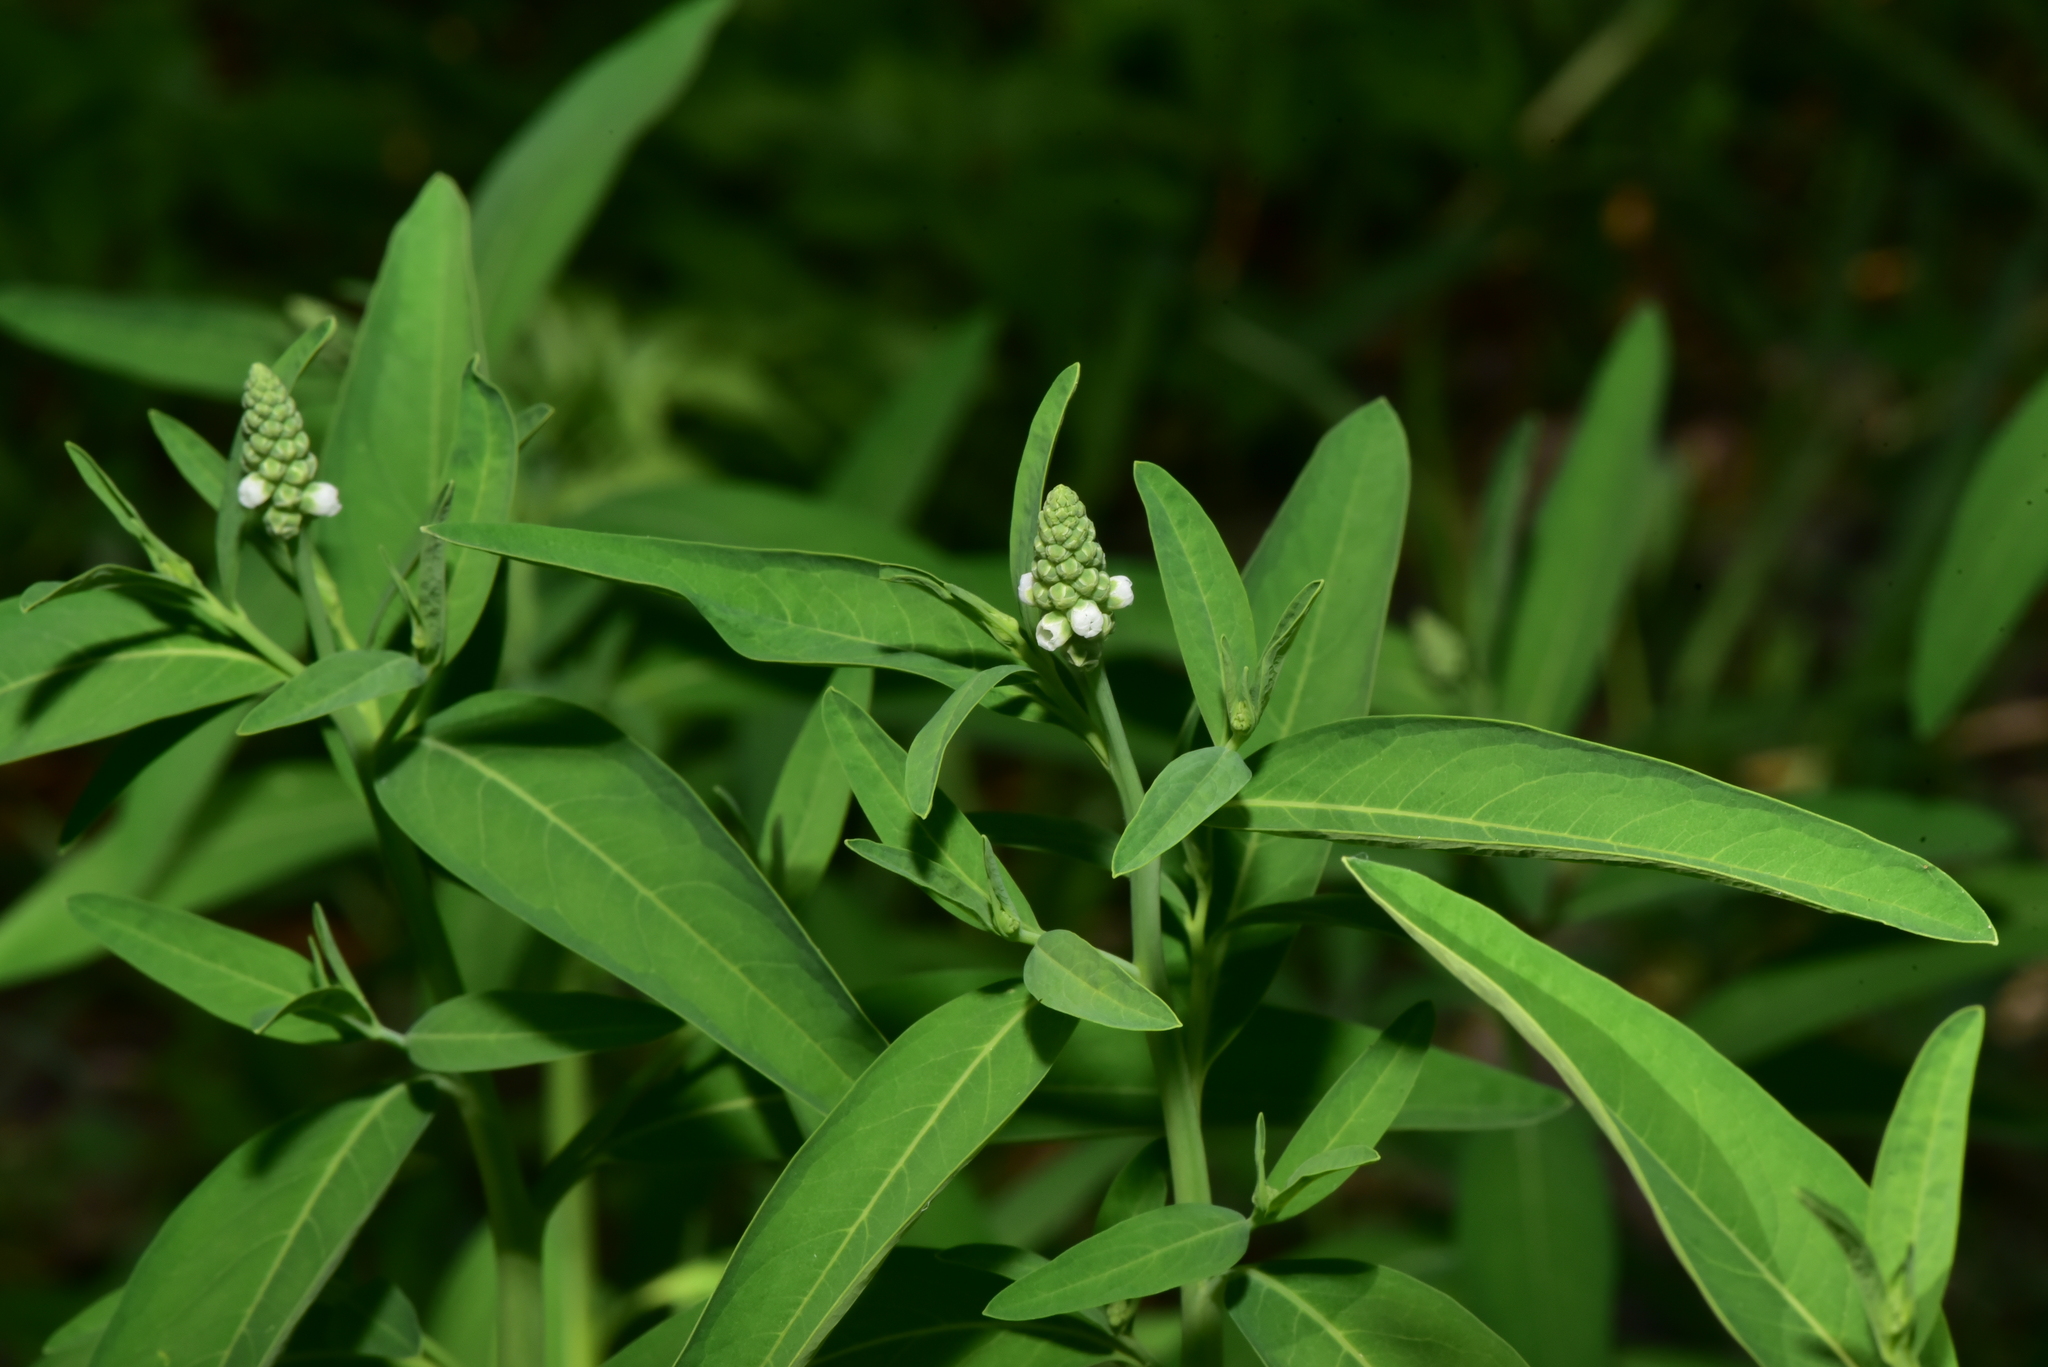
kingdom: Plantae
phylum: Tracheophyta
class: Magnoliopsida
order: Solanales
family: Sphenocleaceae
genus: Sphenoclea
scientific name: Sphenoclea zeylanica
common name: Chickenspike
